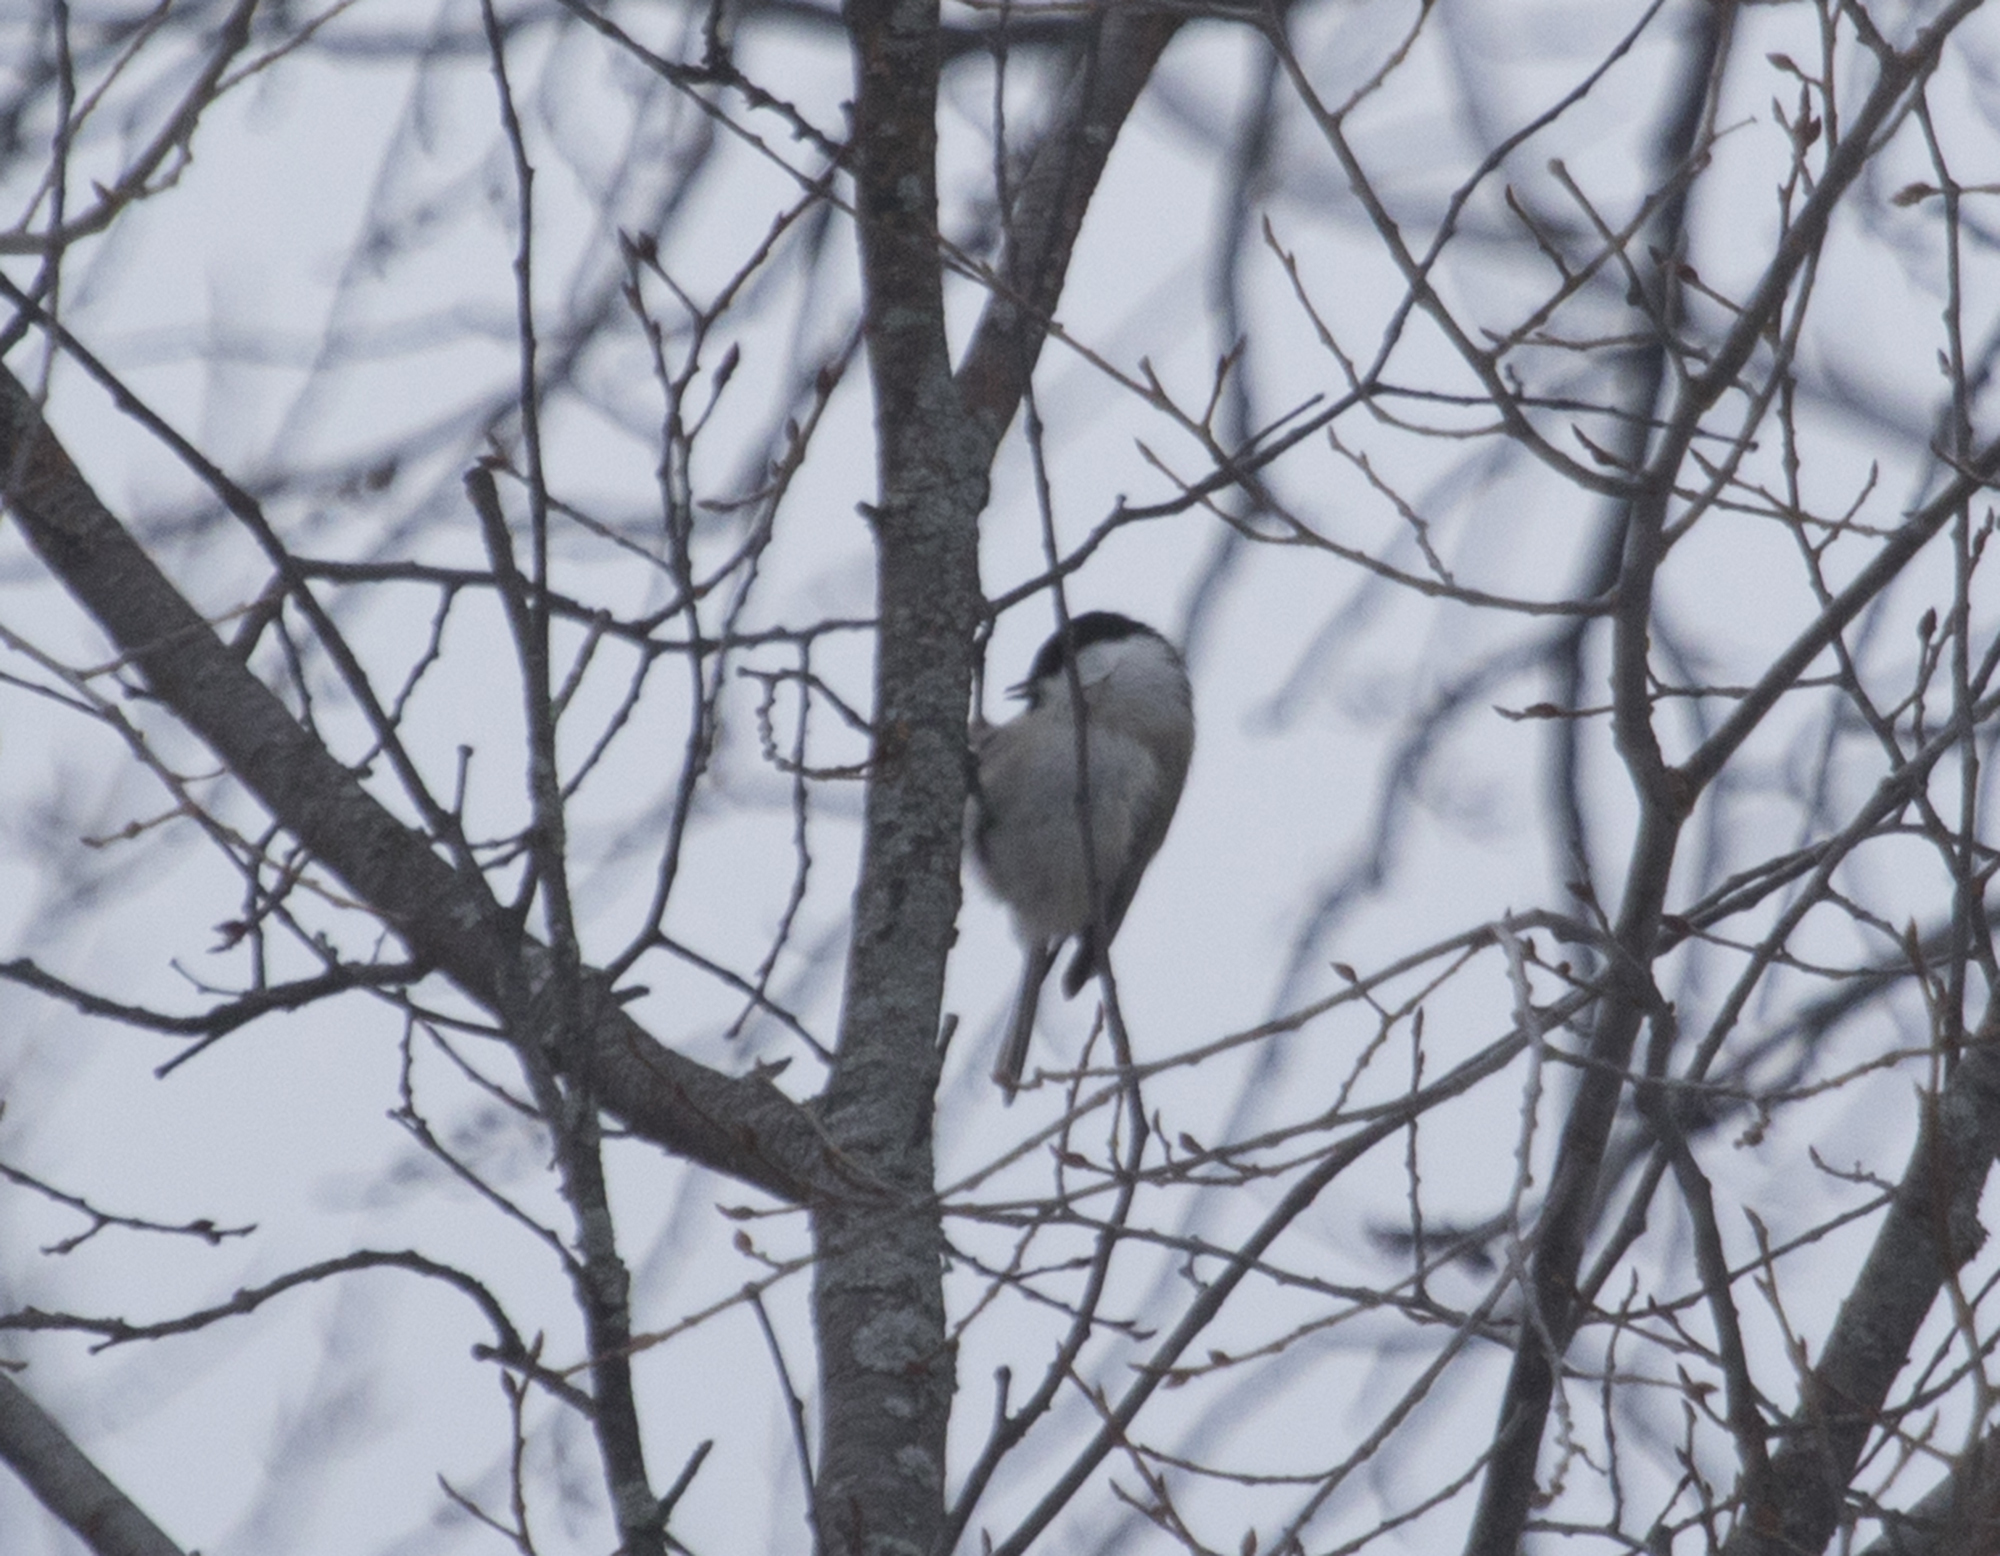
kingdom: Animalia
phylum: Chordata
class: Aves
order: Passeriformes
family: Paridae
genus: Poecile
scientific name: Poecile montanus
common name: Willow tit
